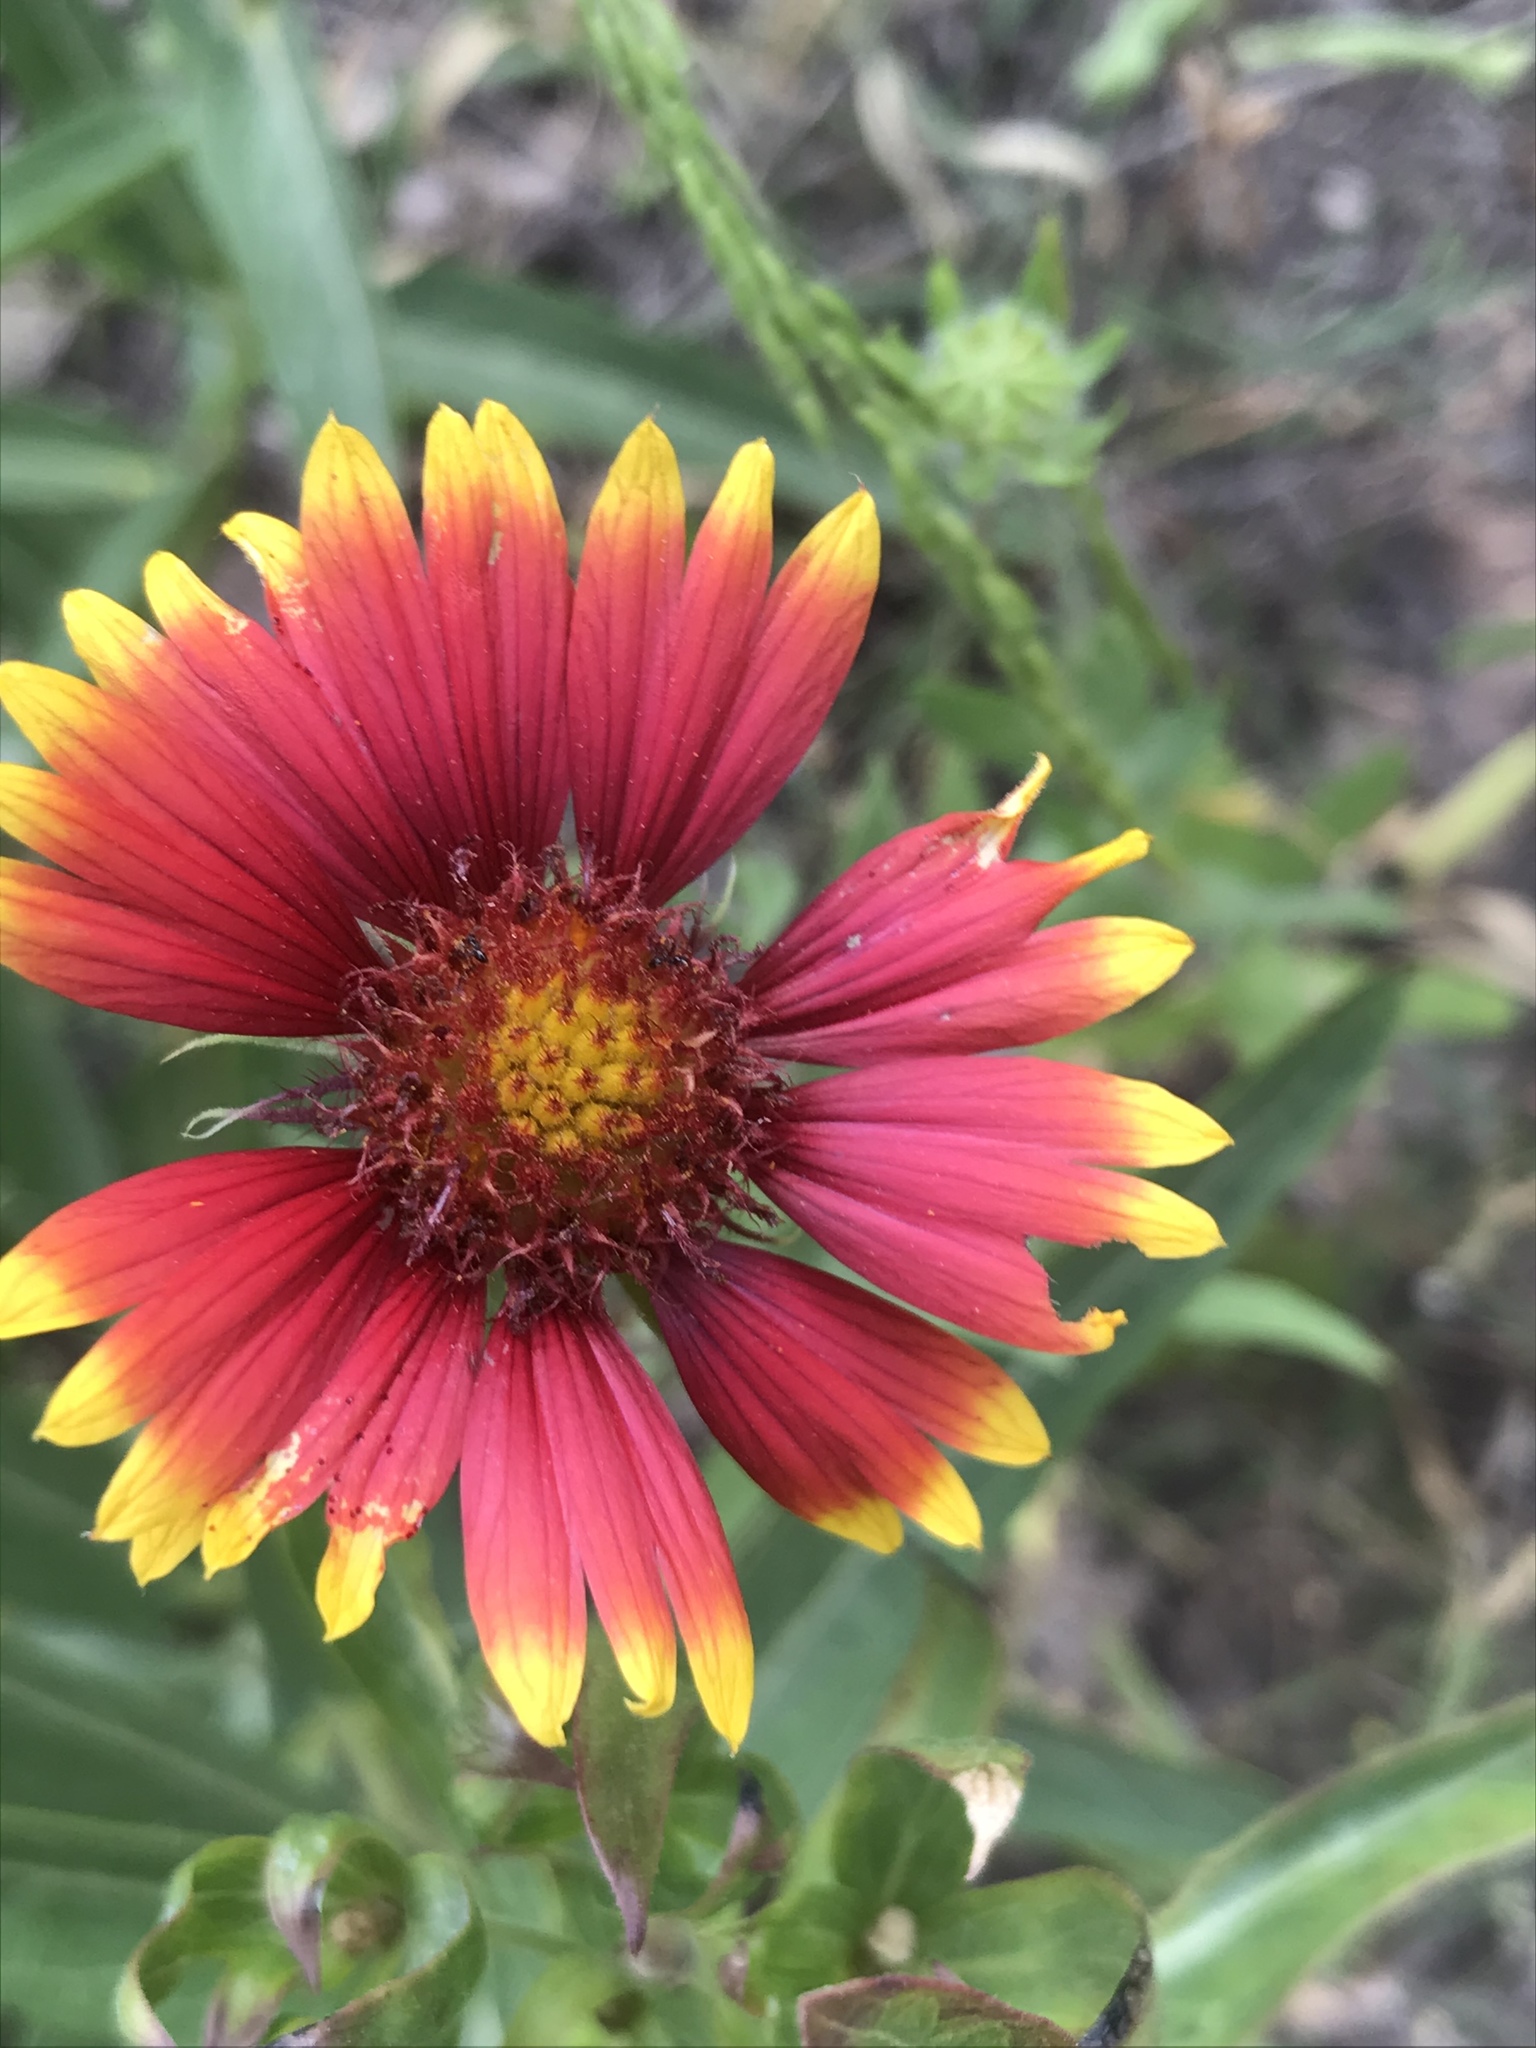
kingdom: Plantae
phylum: Tracheophyta
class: Magnoliopsida
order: Asterales
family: Asteraceae
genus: Gaillardia
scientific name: Gaillardia pulchella
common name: Firewheel
